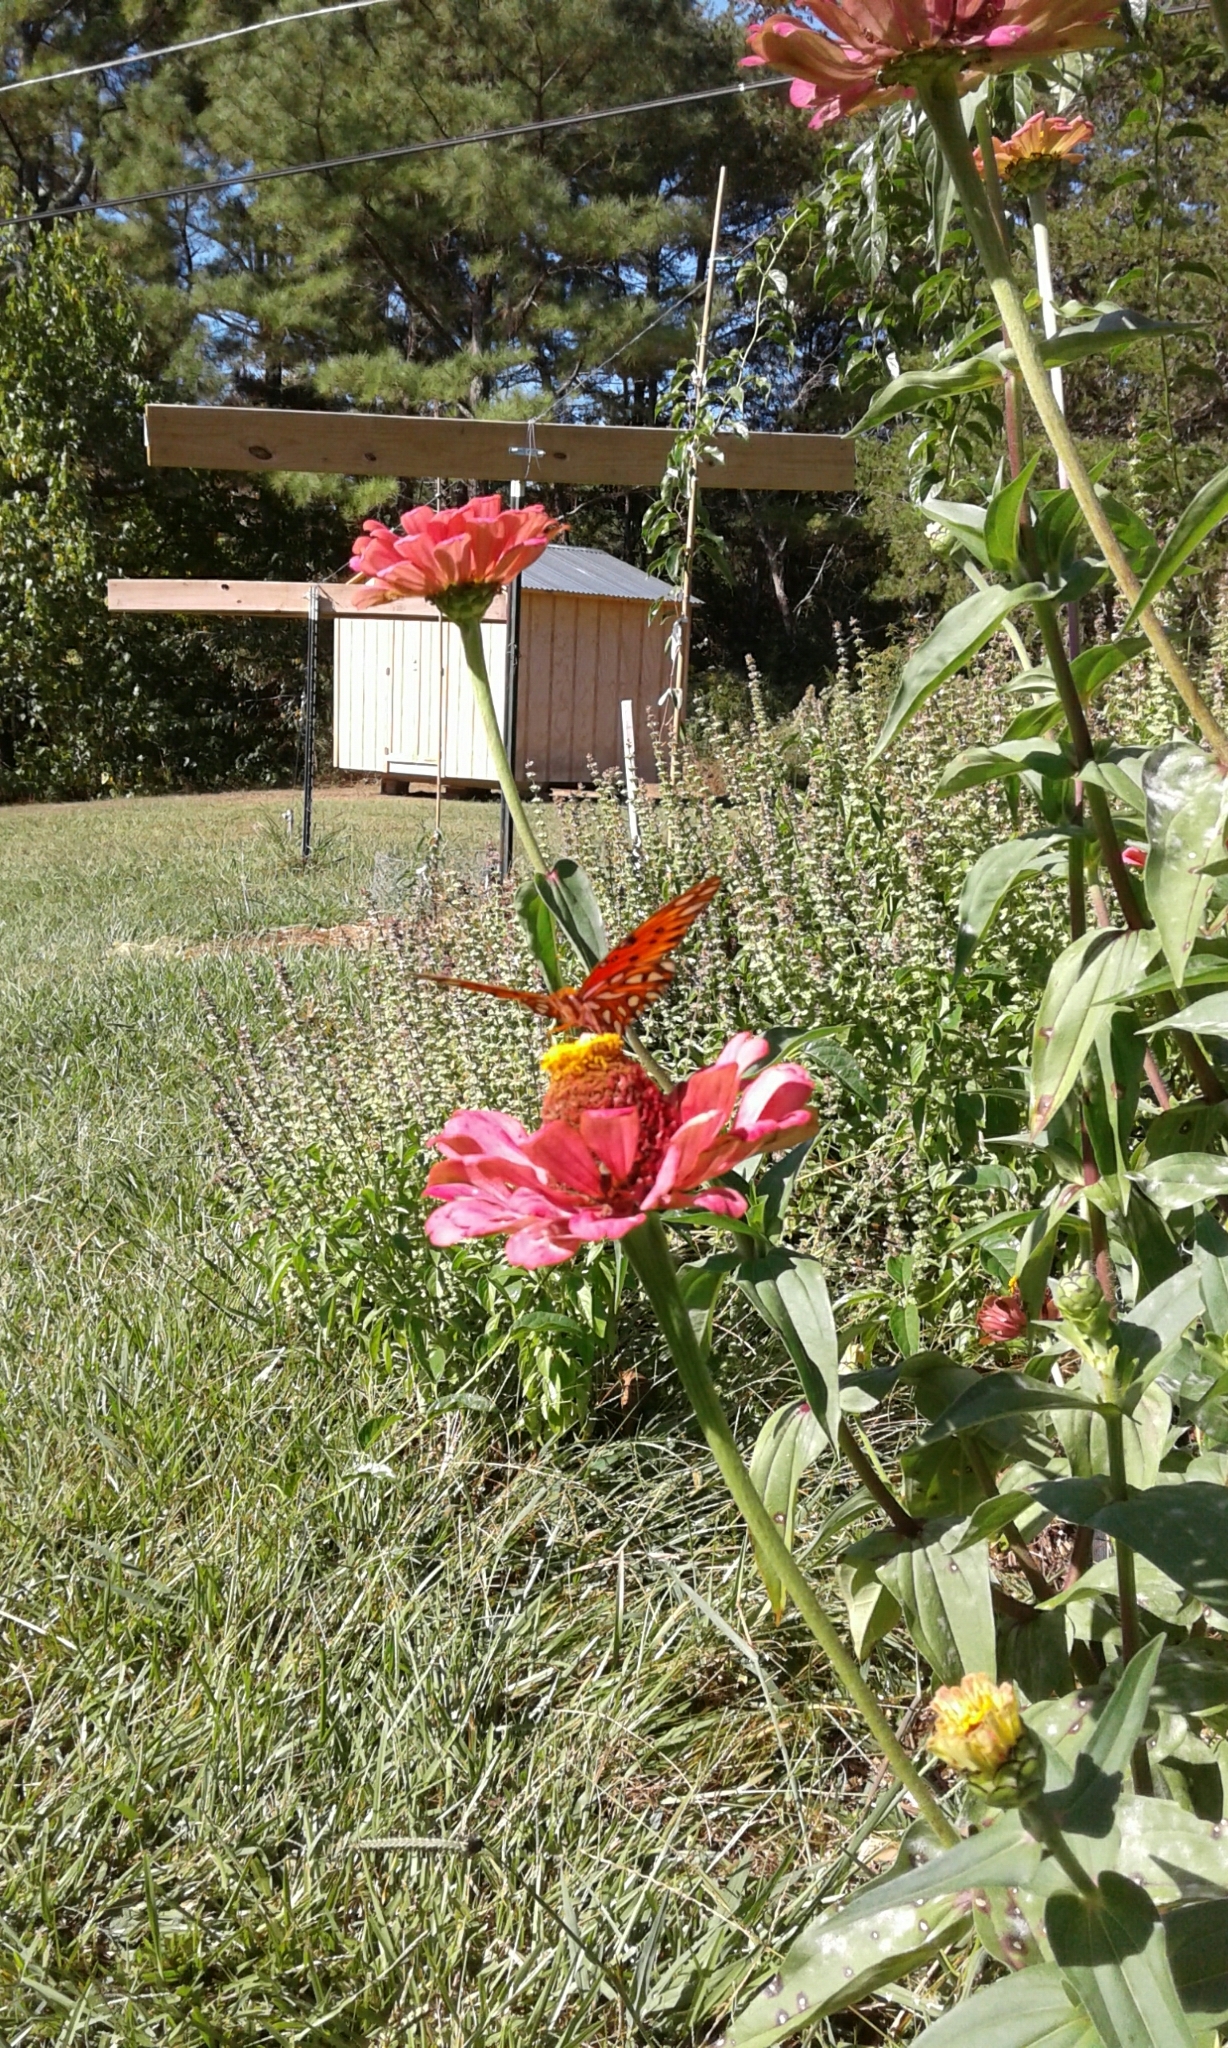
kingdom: Animalia
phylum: Arthropoda
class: Insecta
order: Lepidoptera
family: Nymphalidae
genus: Dione
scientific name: Dione vanillae
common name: Gulf fritillary
